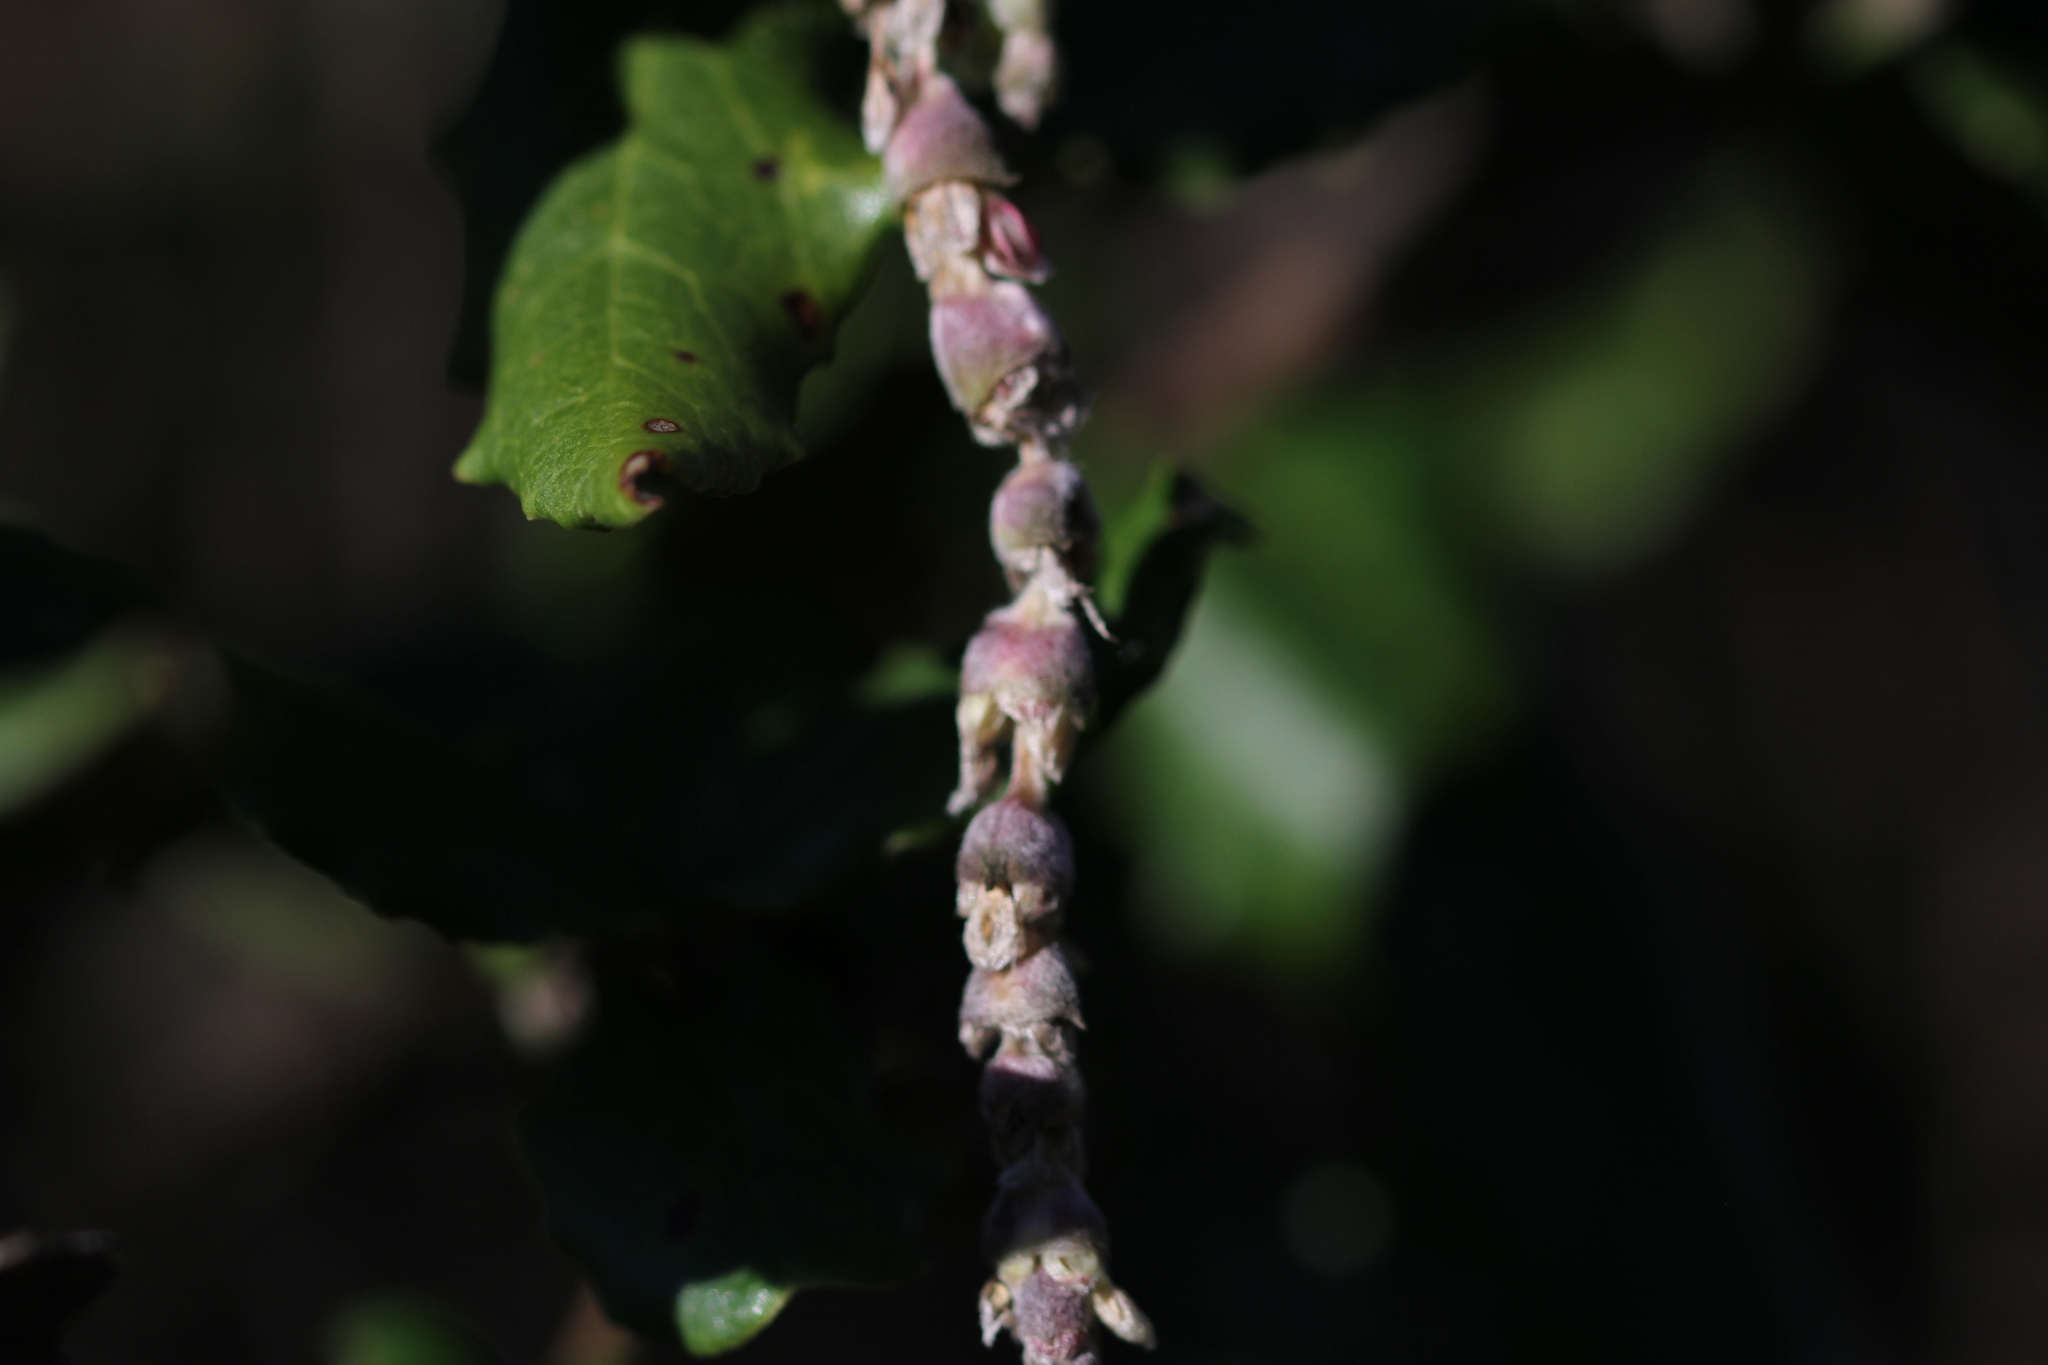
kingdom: Plantae
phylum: Tracheophyta
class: Magnoliopsida
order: Garryales
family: Garryaceae
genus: Garrya
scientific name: Garrya elliptica
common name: Silk-tassel
